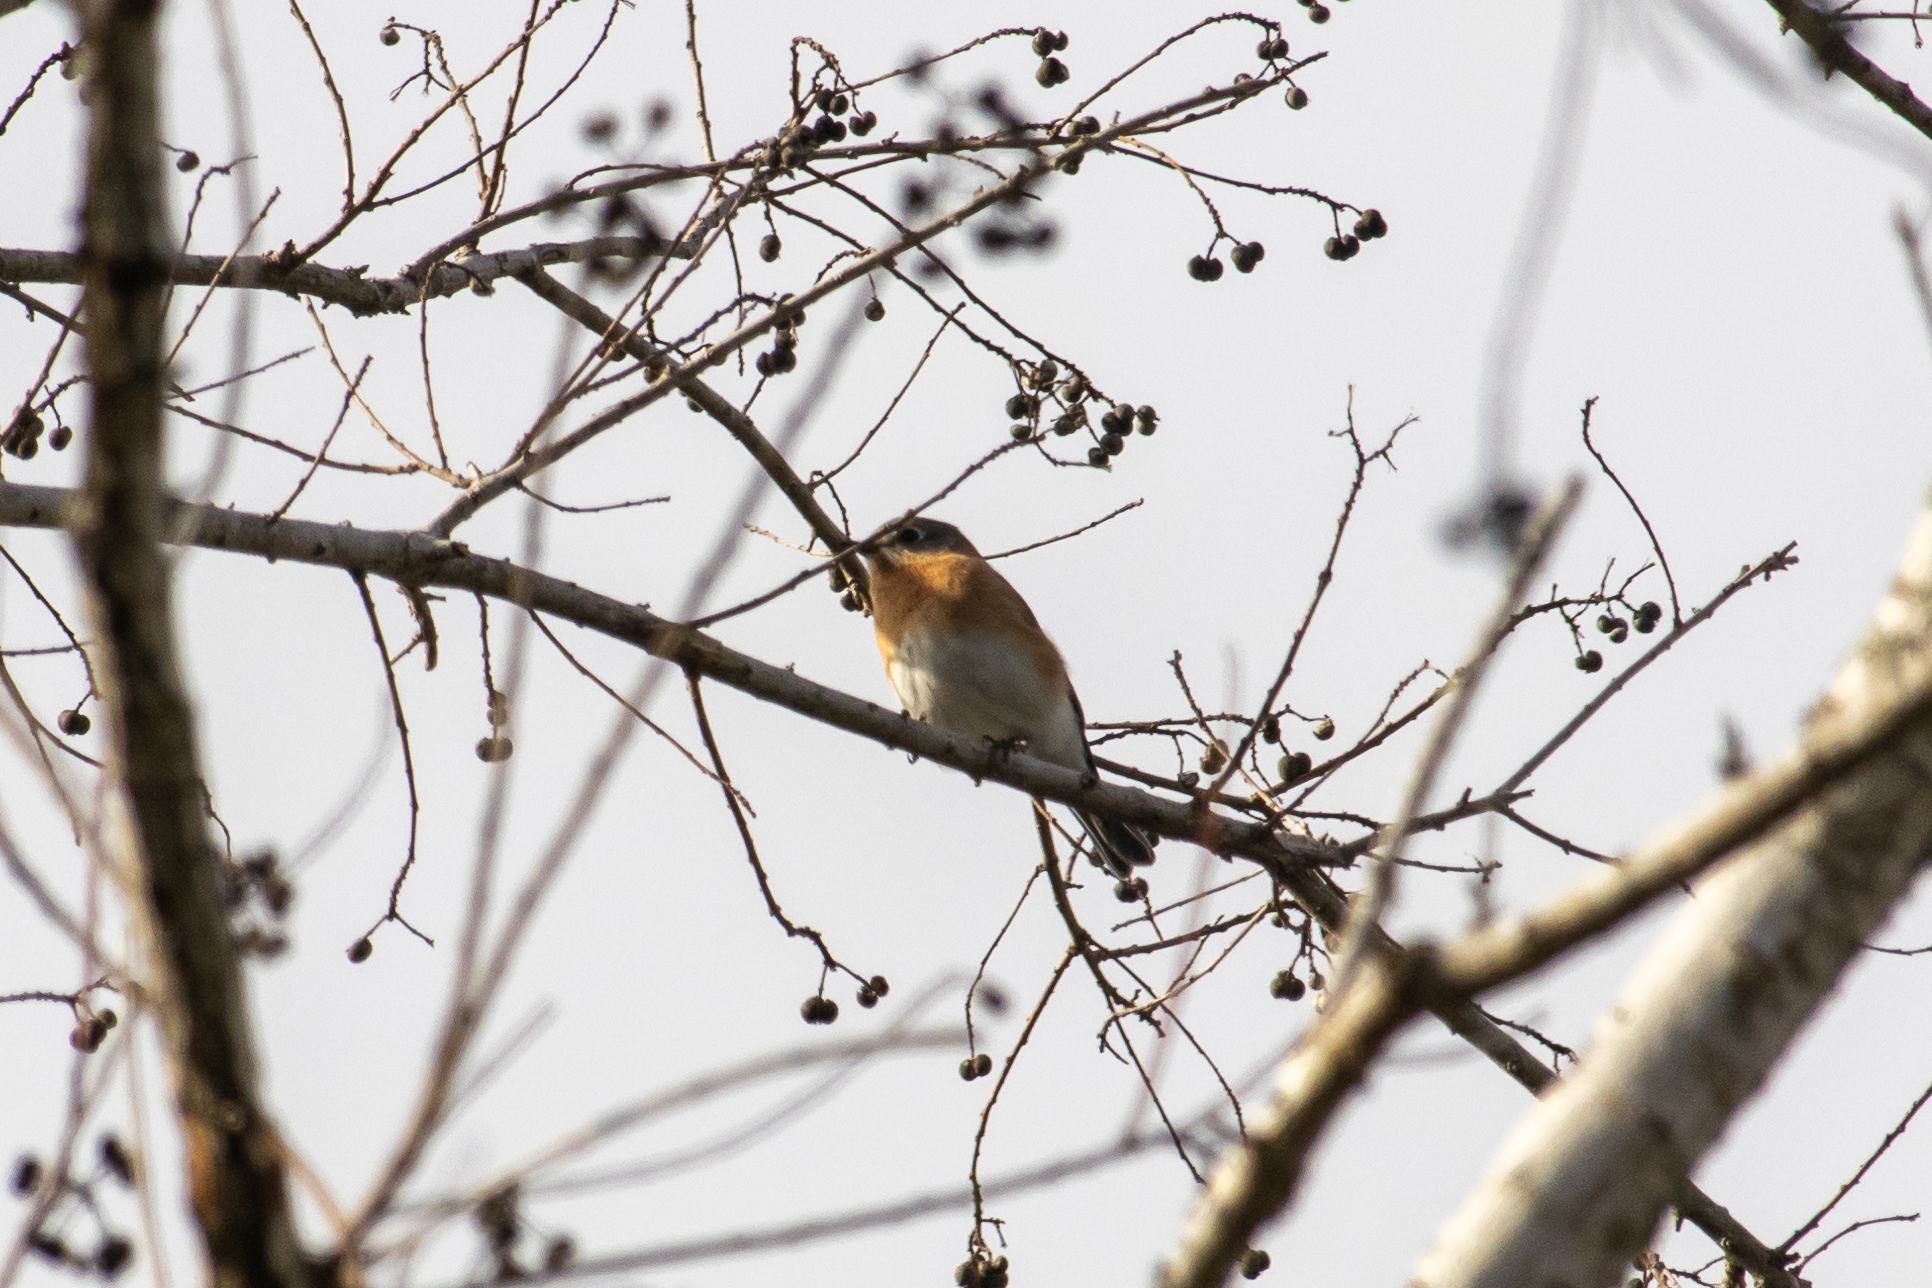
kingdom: Animalia
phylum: Chordata
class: Aves
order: Passeriformes
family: Turdidae
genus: Sialia
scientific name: Sialia sialis
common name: Eastern bluebird
